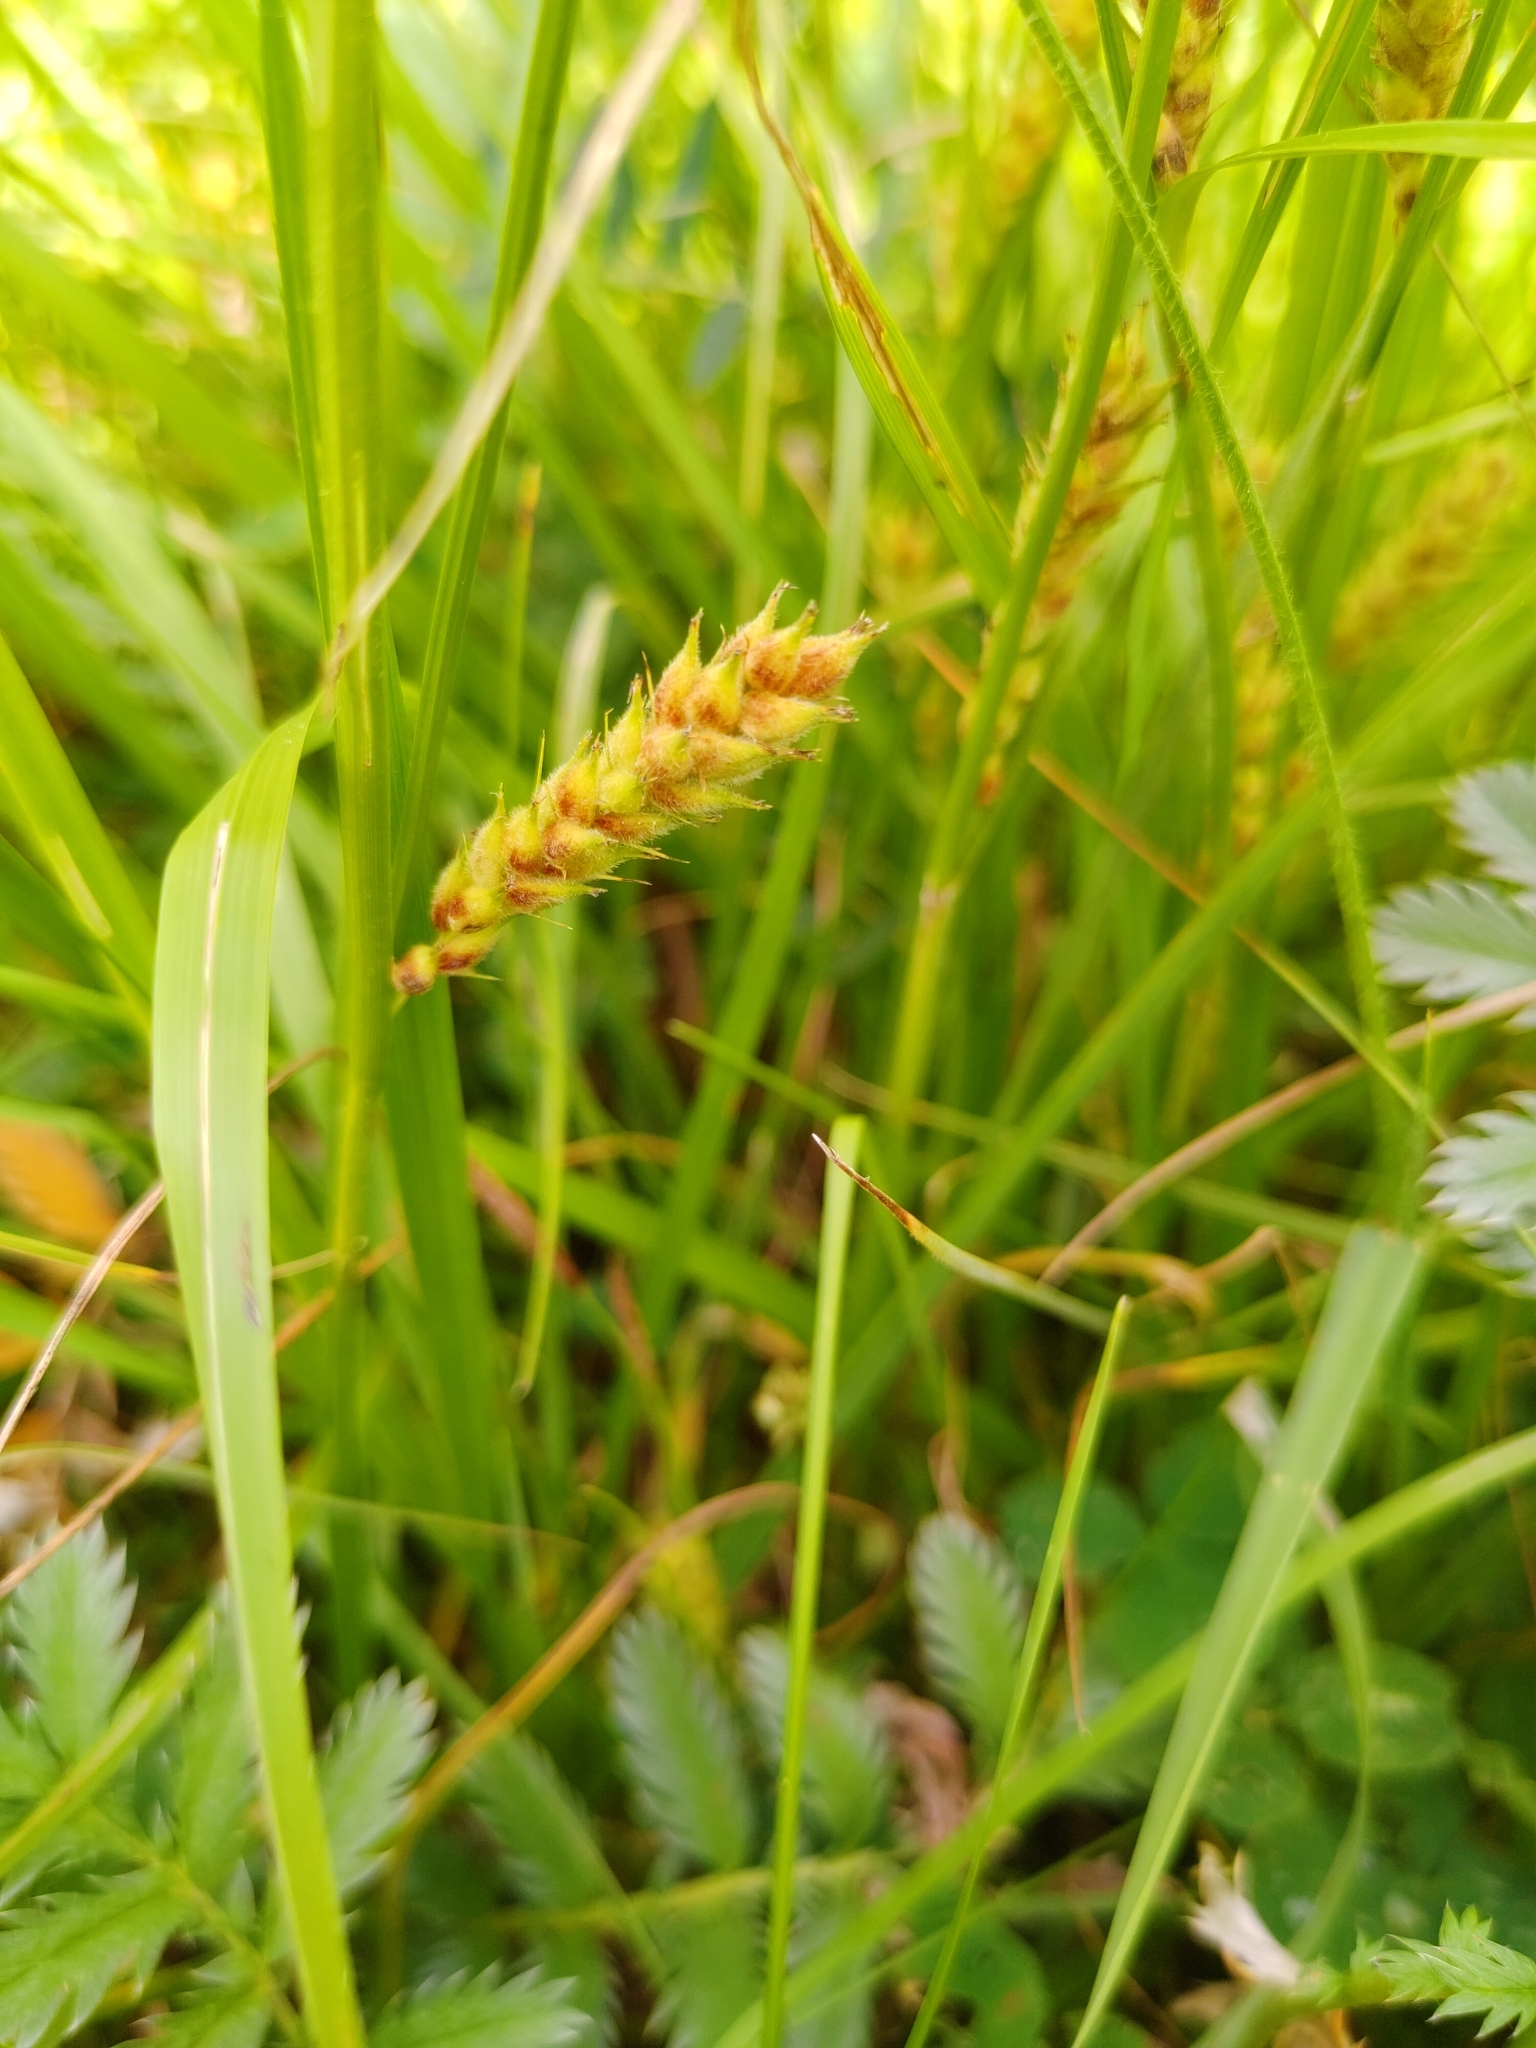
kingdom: Plantae
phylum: Tracheophyta
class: Liliopsida
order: Poales
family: Cyperaceae
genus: Carex
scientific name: Carex hirta
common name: Hairy sedge
